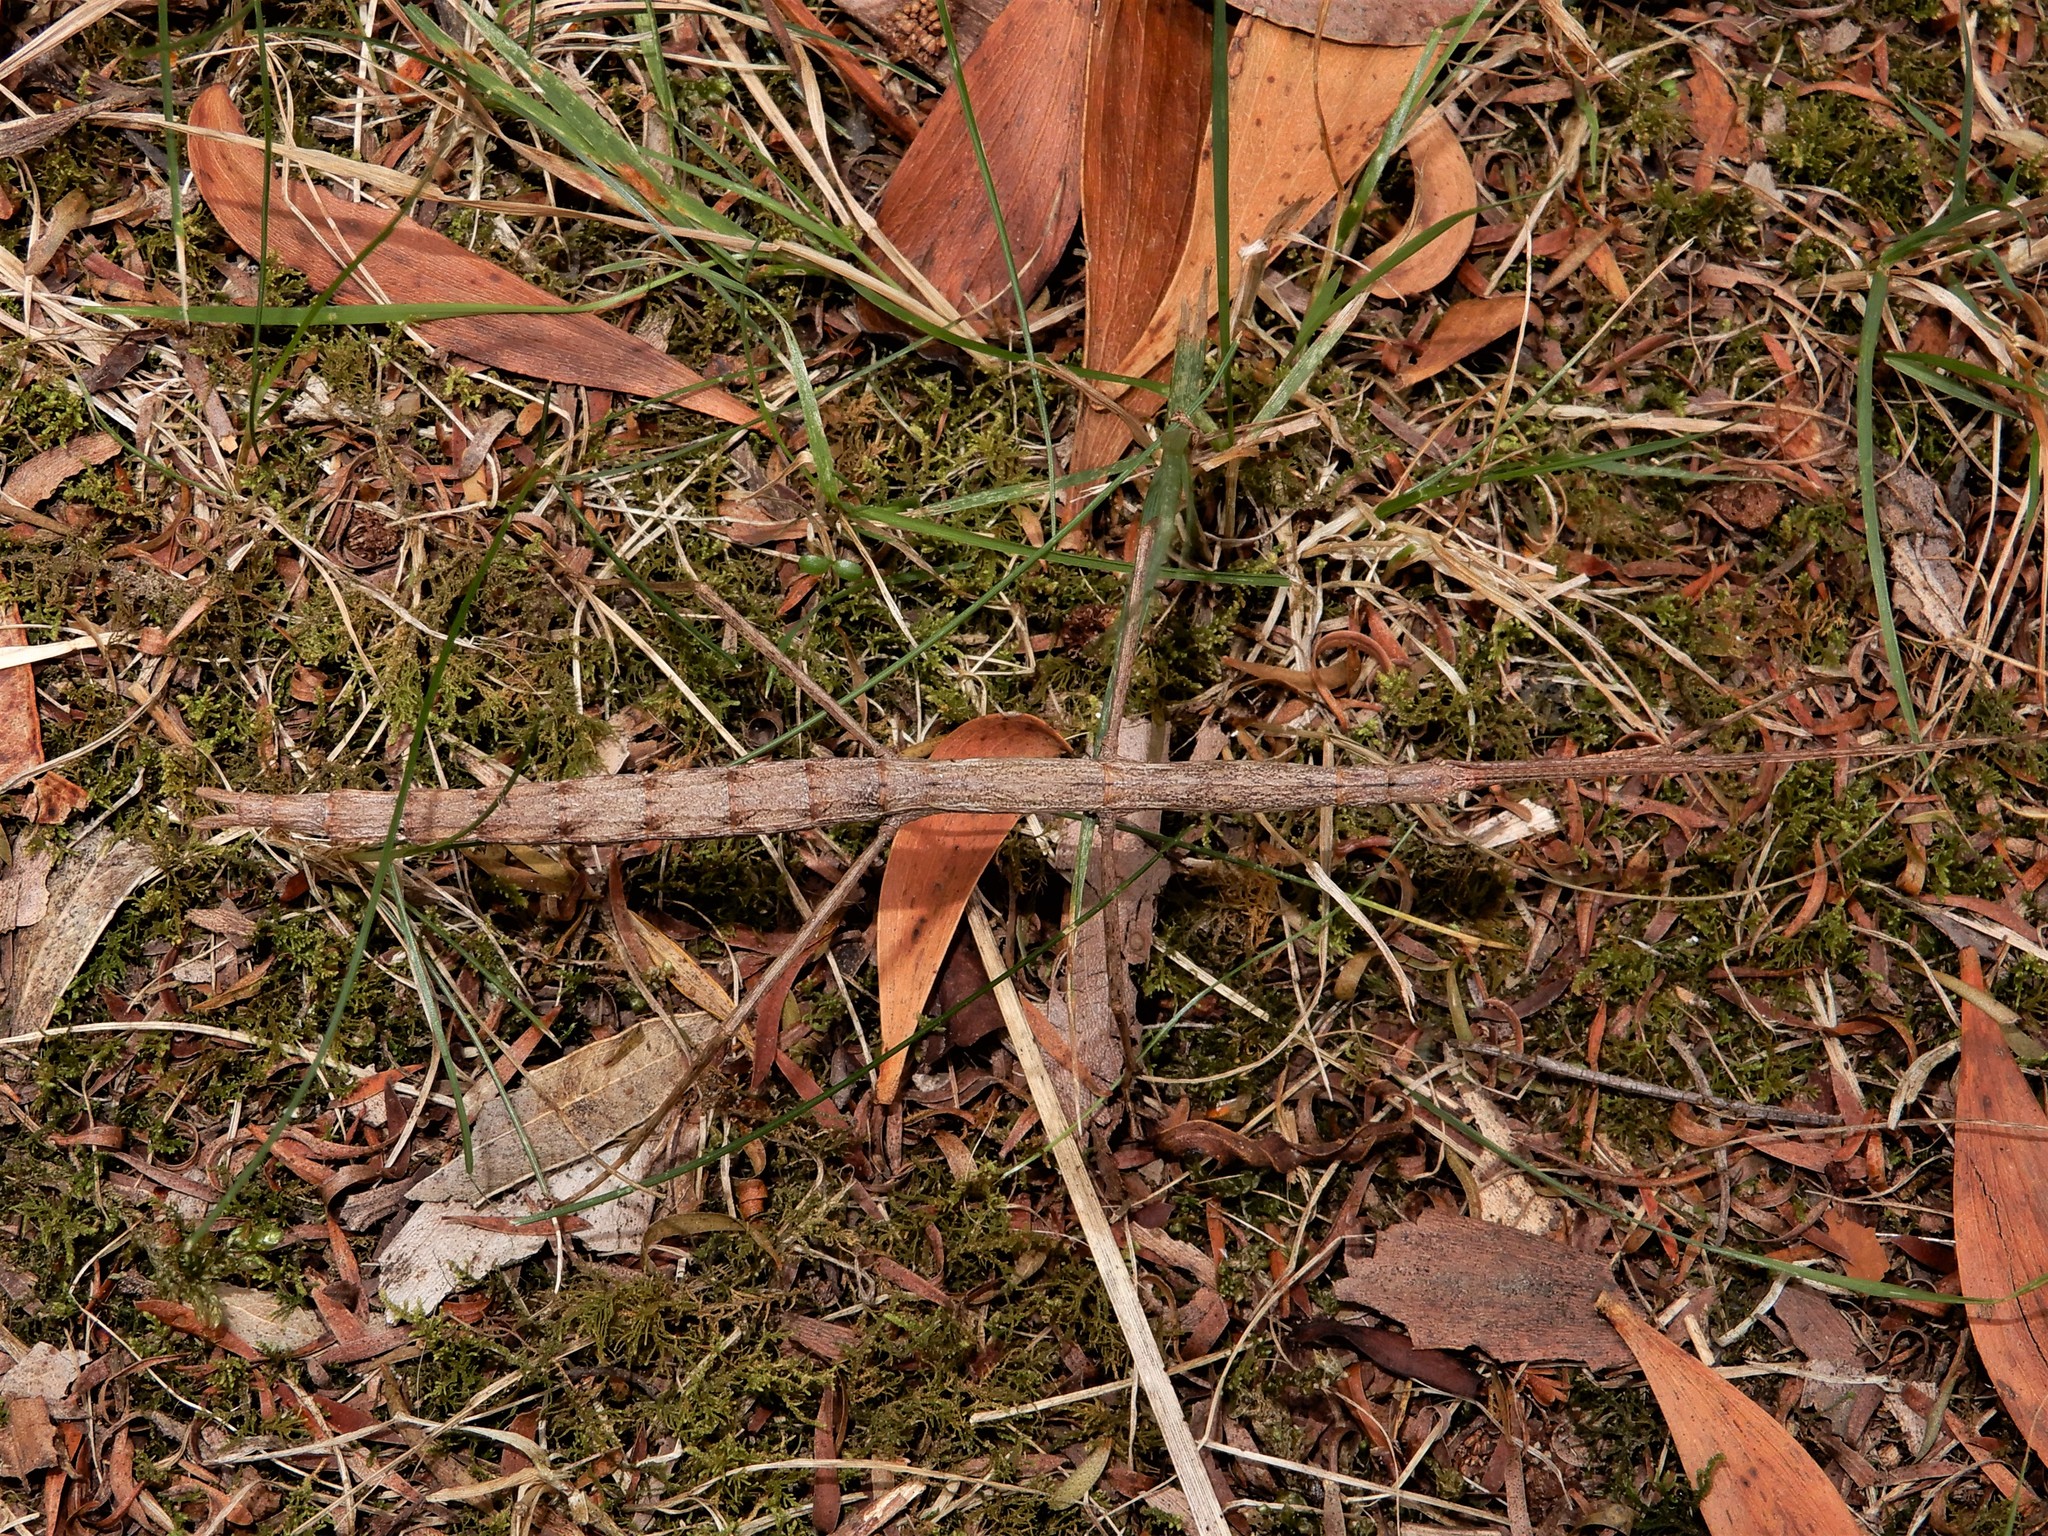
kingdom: Animalia
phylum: Arthropoda
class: Insecta
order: Phasmida
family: Phasmatidae
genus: Clitarchus
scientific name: Clitarchus hookeri
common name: Smooth stick insect
